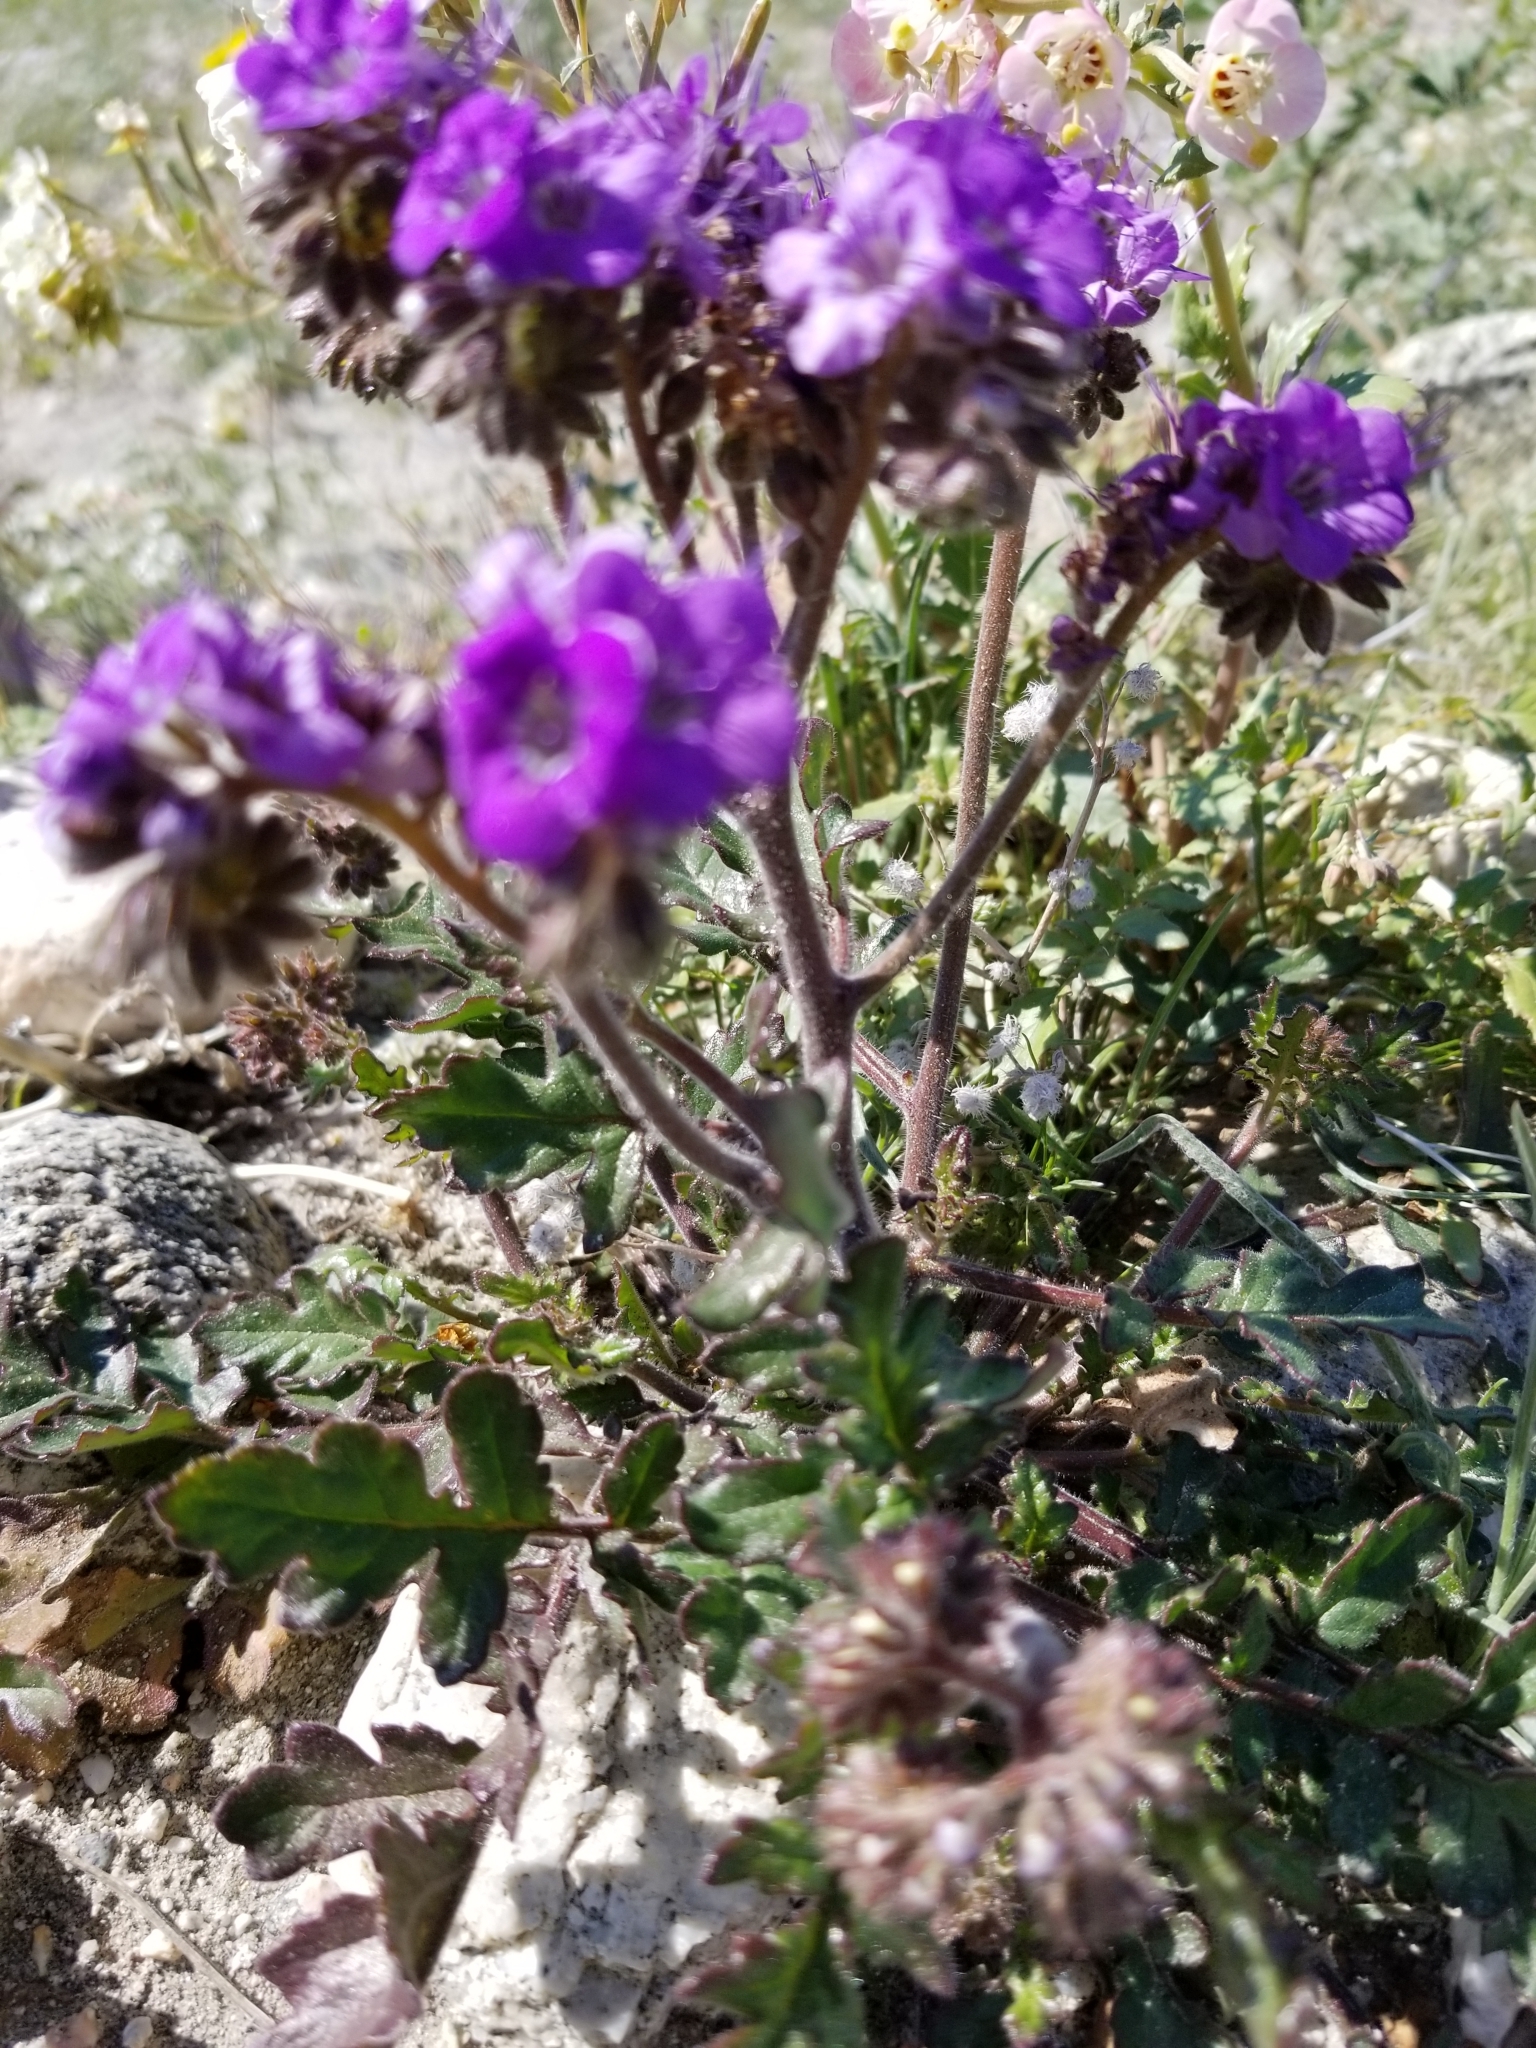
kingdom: Plantae
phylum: Tracheophyta
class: Magnoliopsida
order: Boraginales
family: Hydrophyllaceae
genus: Phacelia
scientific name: Phacelia crenulata
